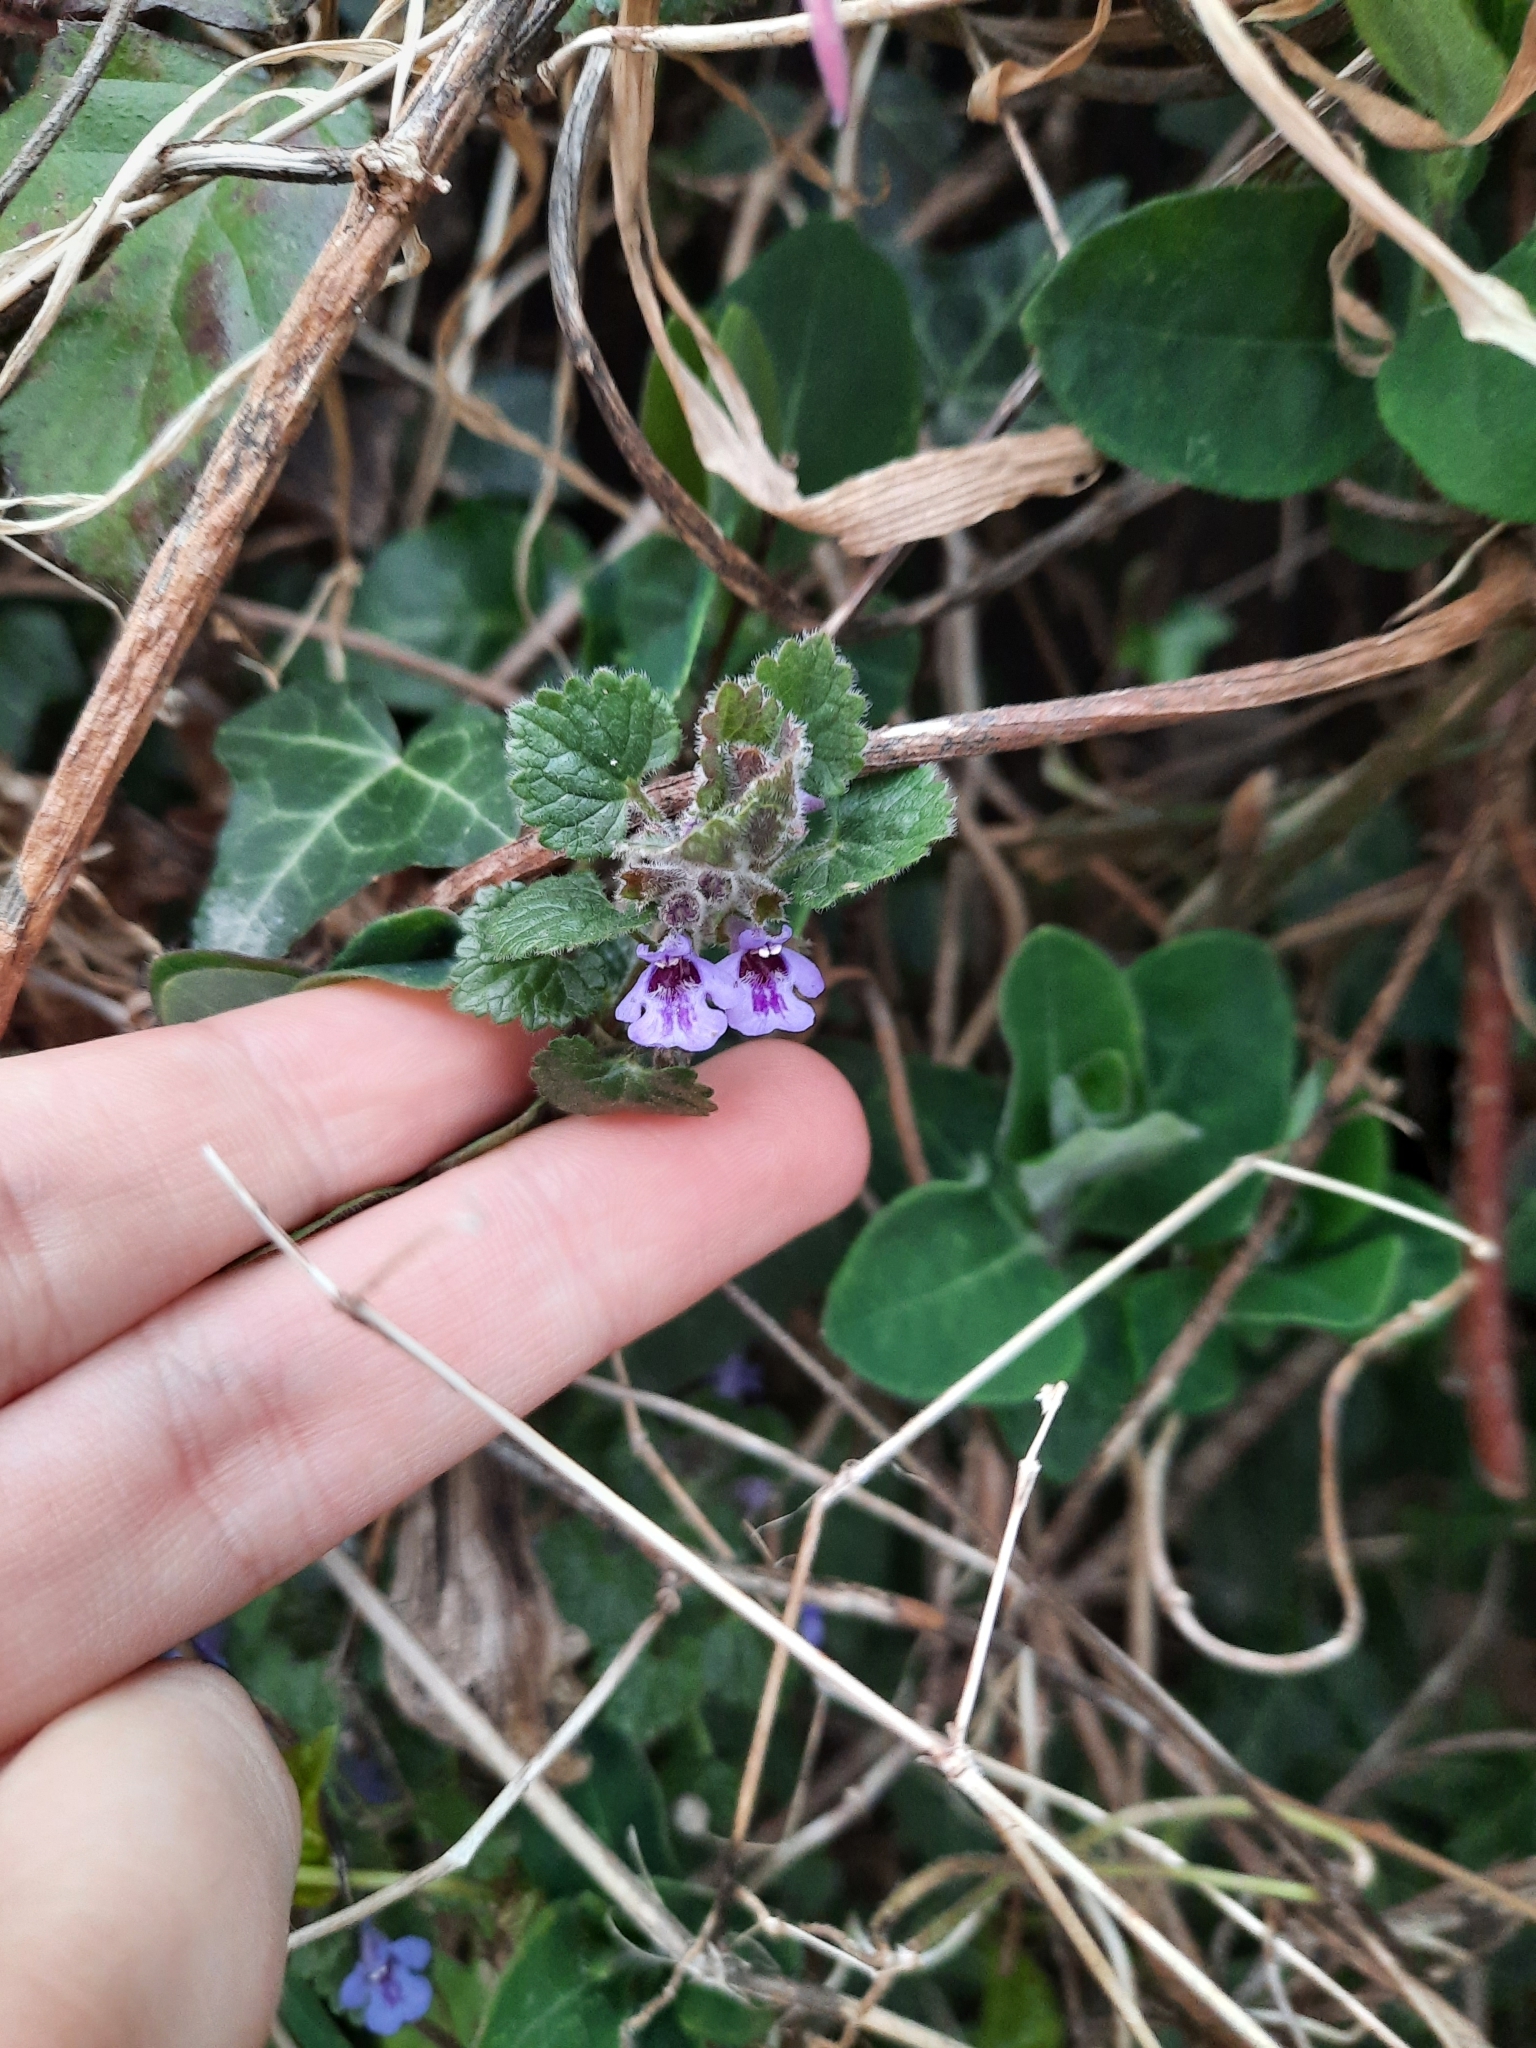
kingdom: Plantae
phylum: Tracheophyta
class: Magnoliopsida
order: Lamiales
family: Lamiaceae
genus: Glechoma
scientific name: Glechoma hederacea
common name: Ground ivy
